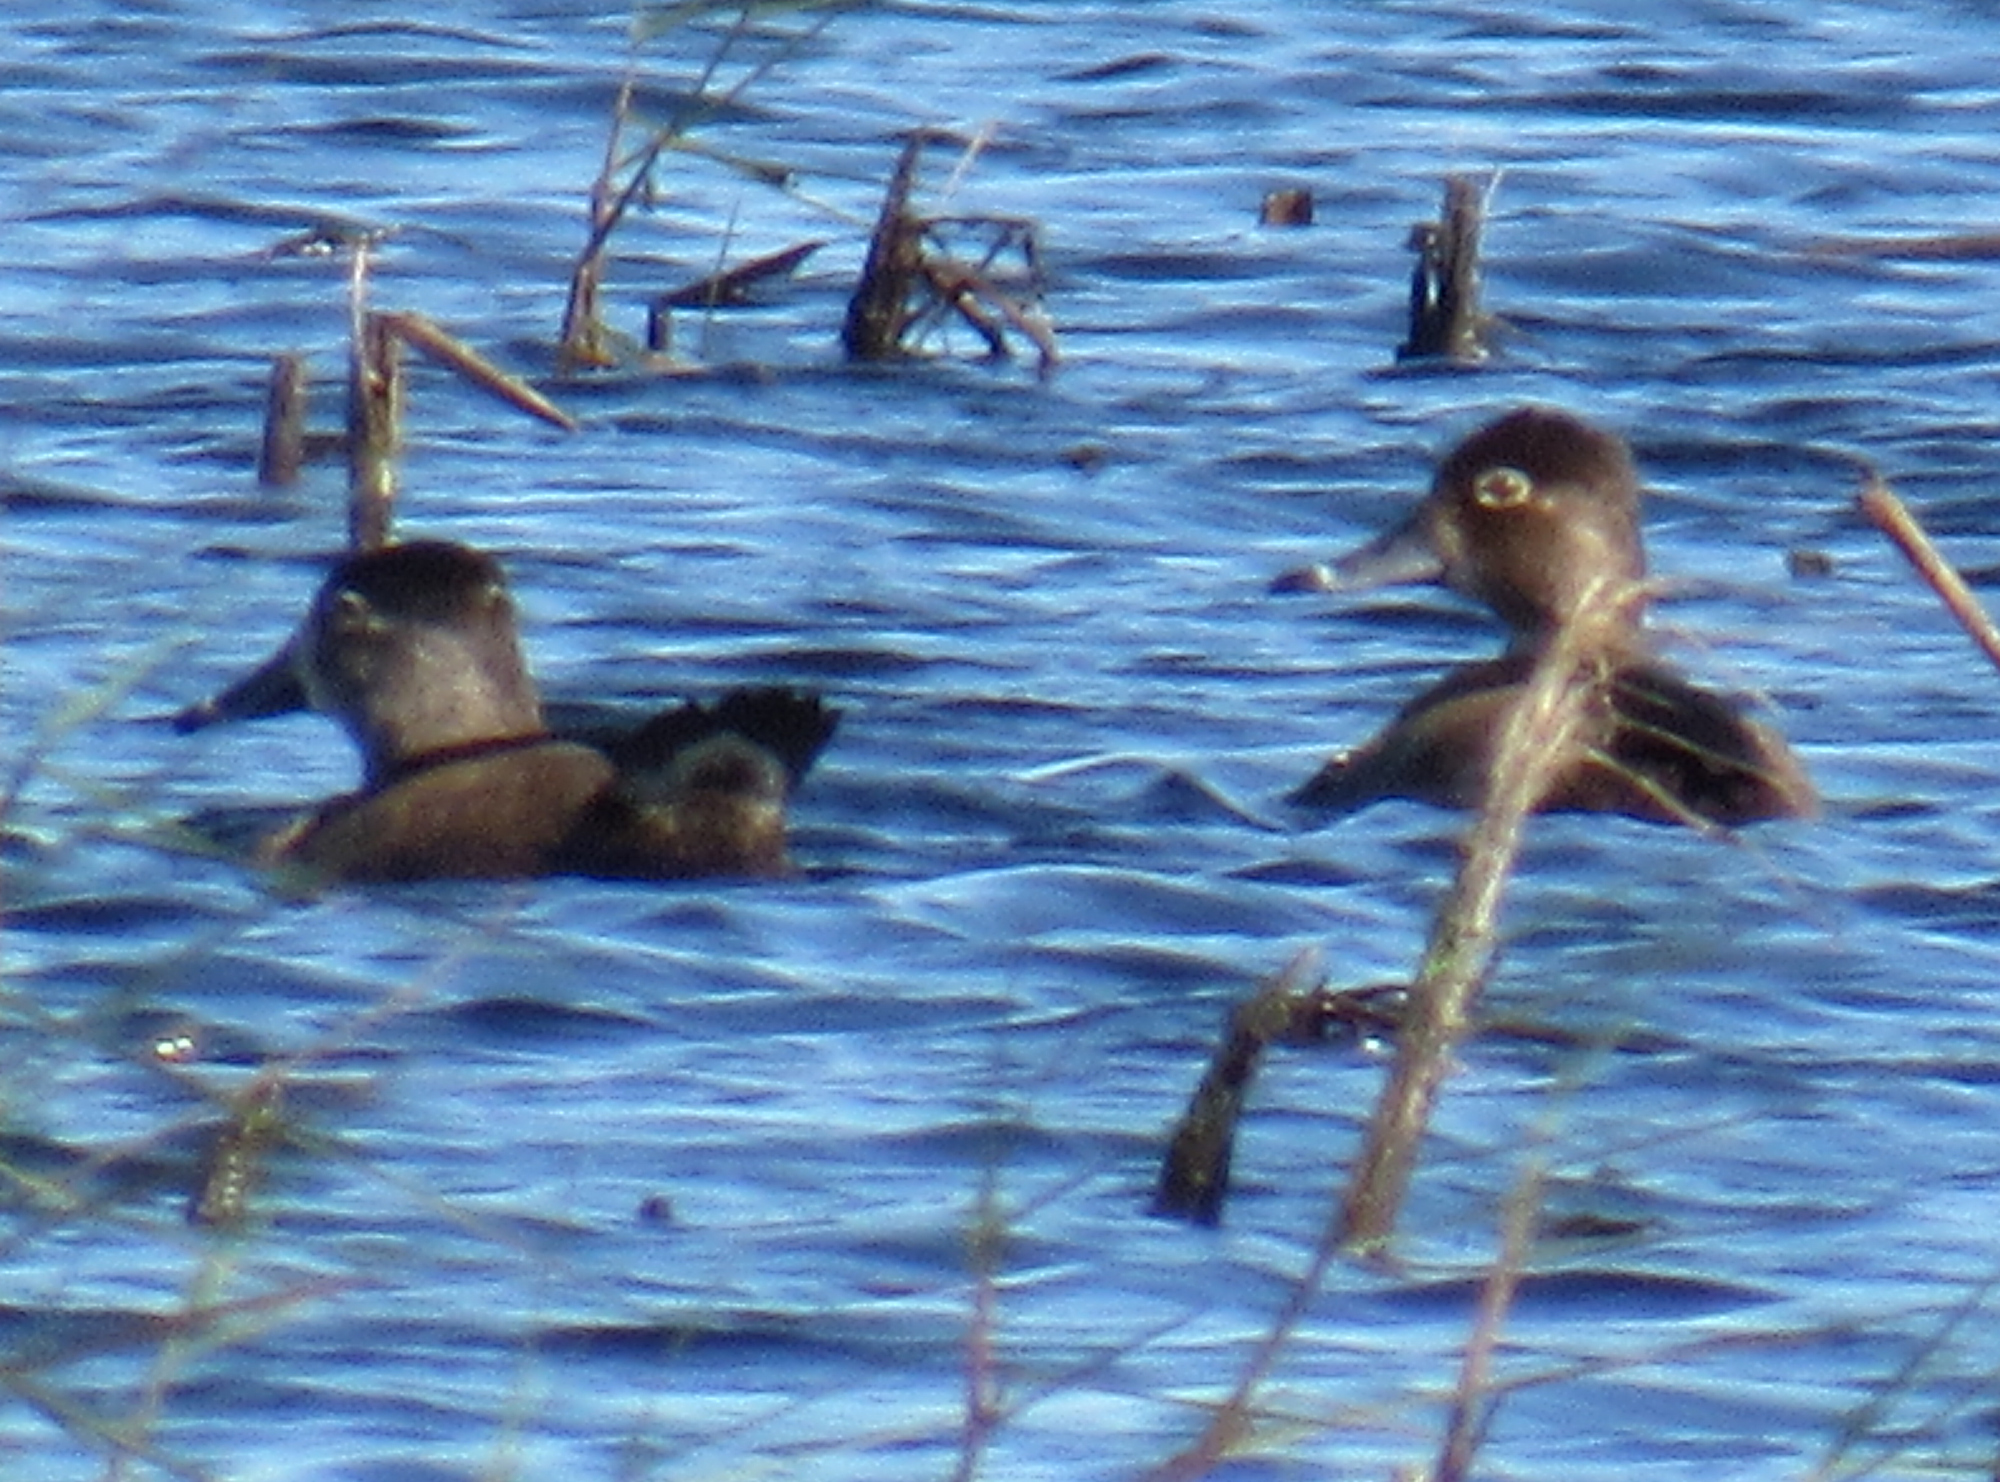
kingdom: Animalia
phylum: Chordata
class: Aves
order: Anseriformes
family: Anatidae
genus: Aythya
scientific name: Aythya collaris
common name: Ring-necked duck
